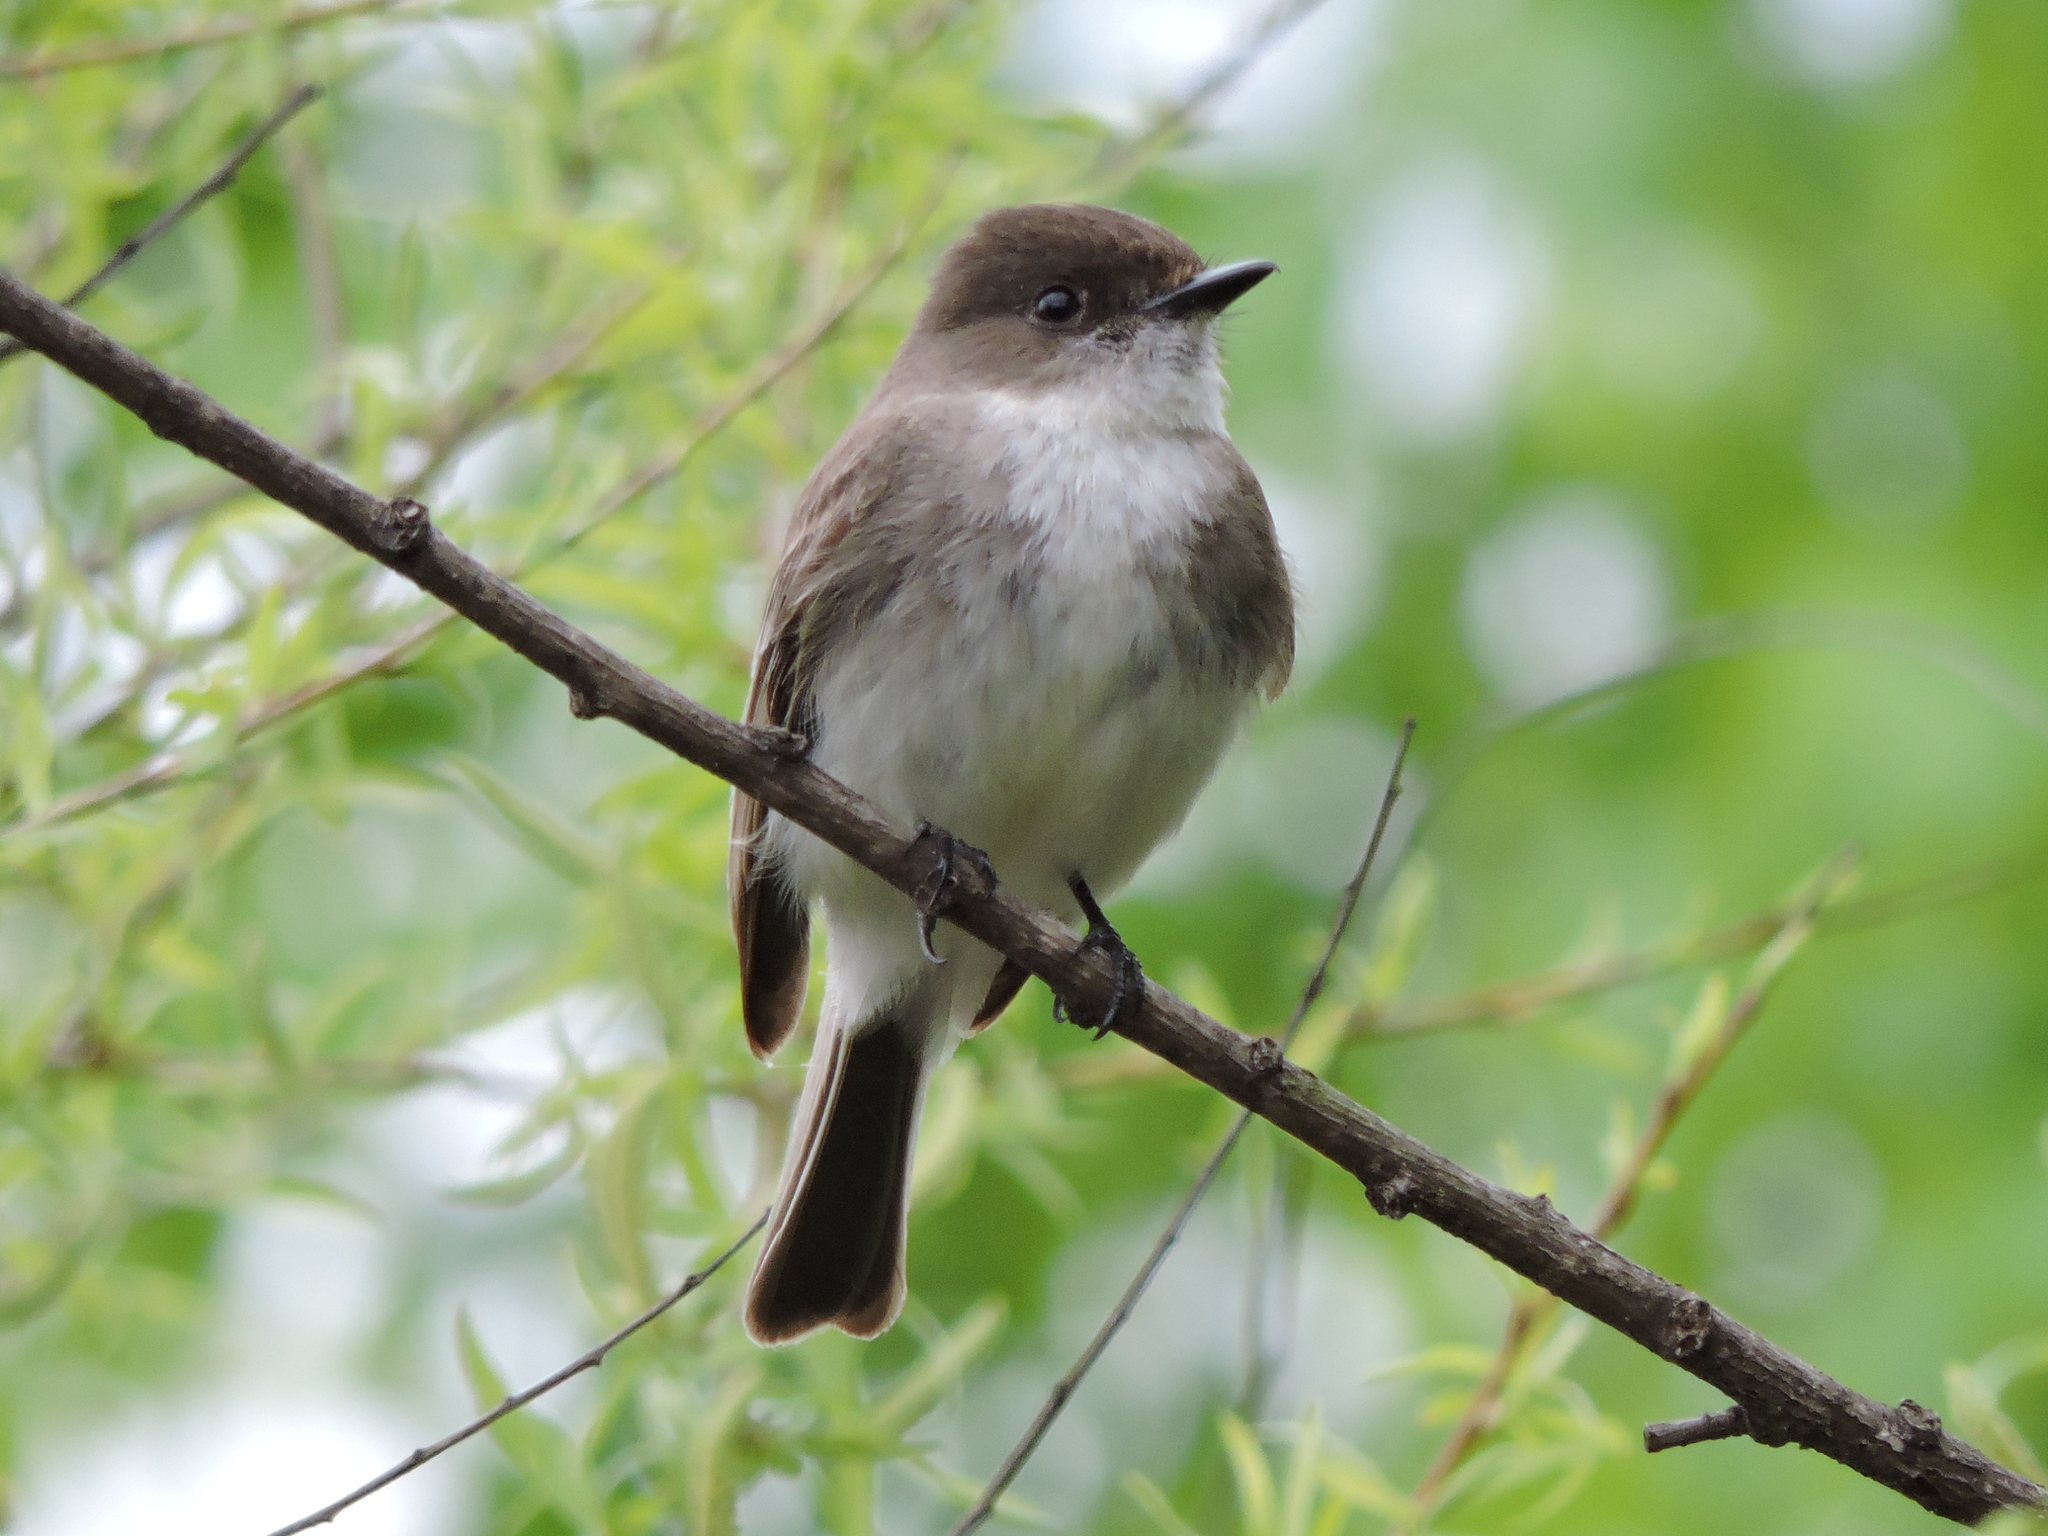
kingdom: Animalia
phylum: Chordata
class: Aves
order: Passeriformes
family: Tyrannidae
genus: Sayornis
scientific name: Sayornis phoebe
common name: Eastern phoebe
